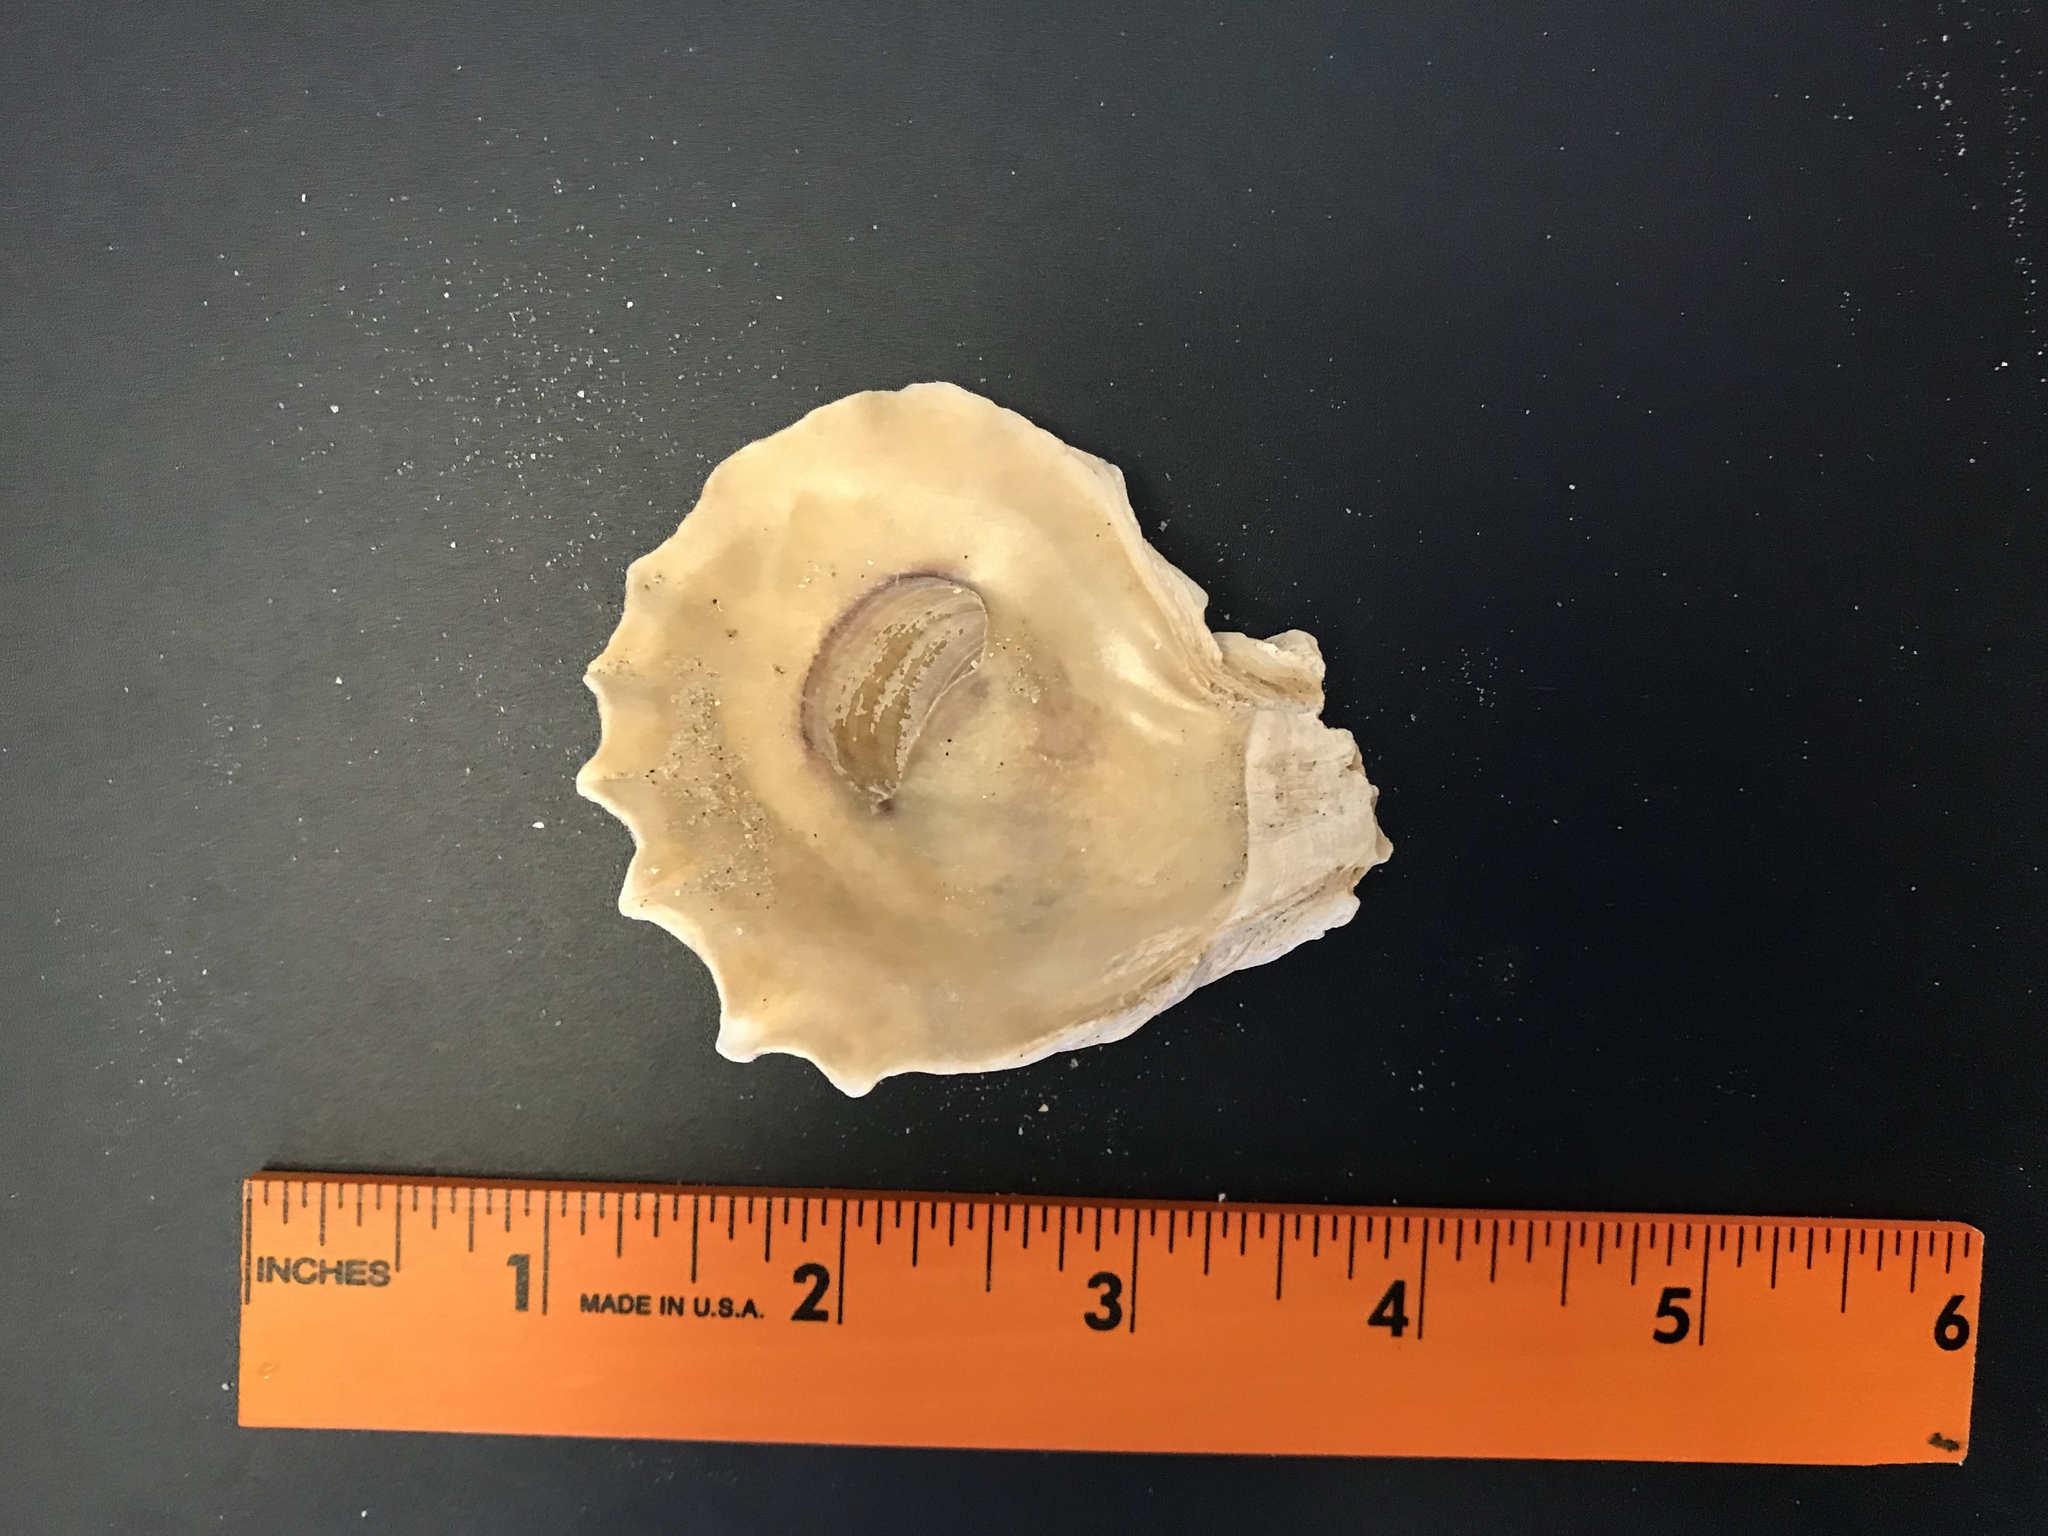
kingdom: Animalia
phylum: Mollusca
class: Bivalvia
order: Ostreida
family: Ostreidae
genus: Crassostrea
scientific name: Crassostrea virginica
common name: American oyster
